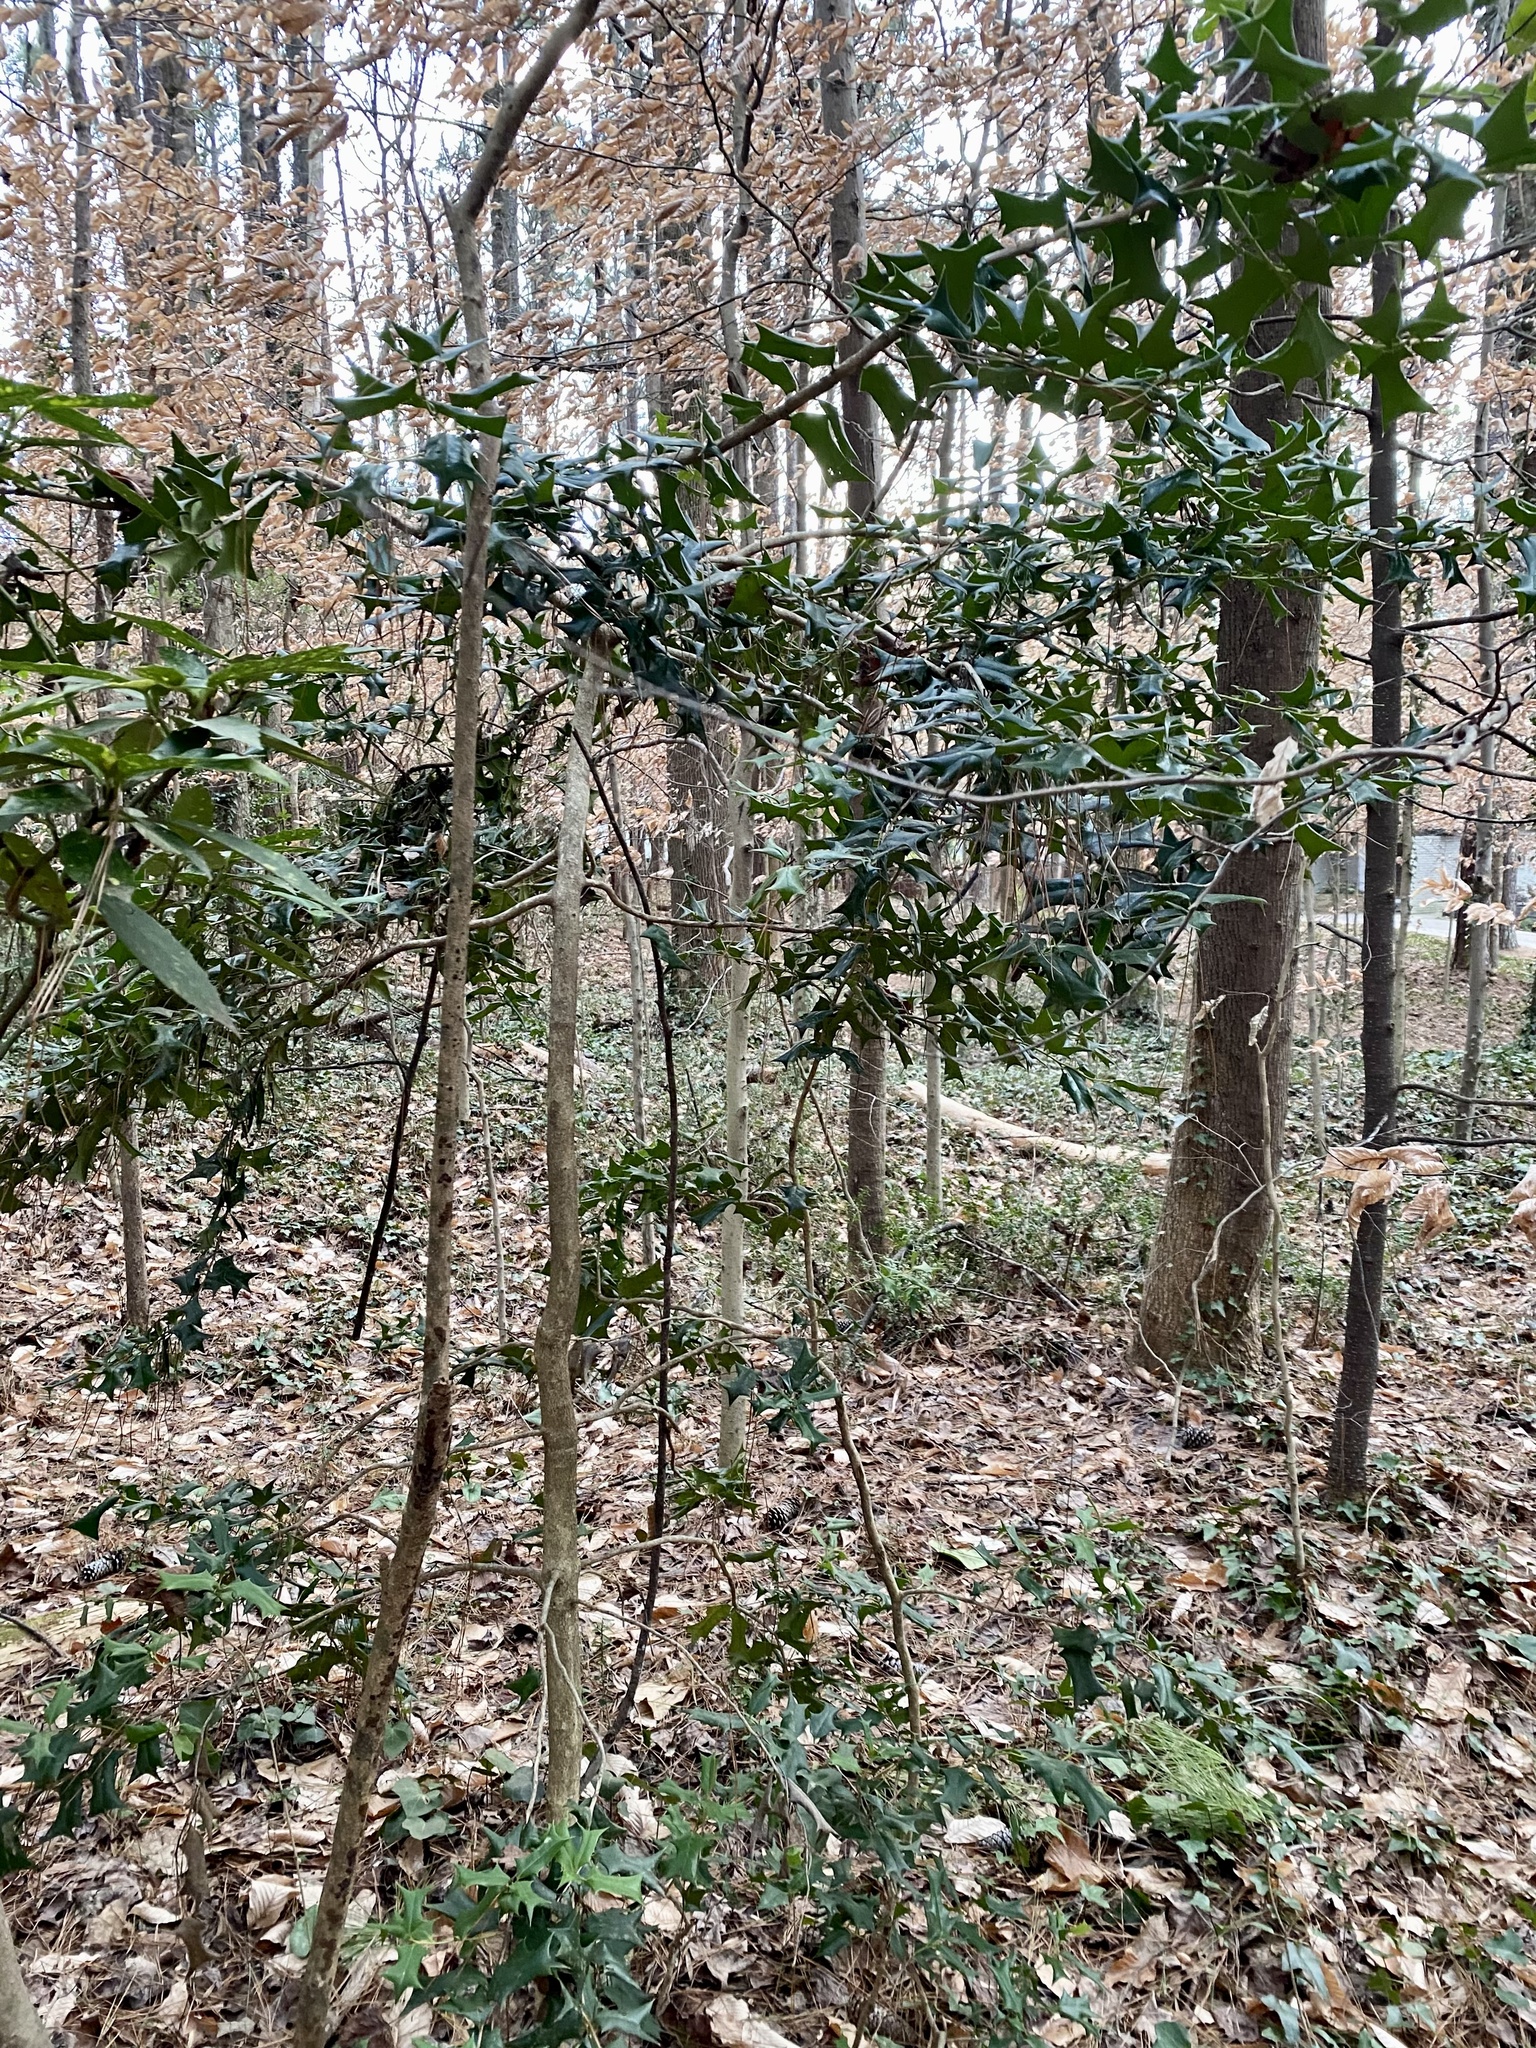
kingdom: Plantae
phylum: Tracheophyta
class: Magnoliopsida
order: Aquifoliales
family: Aquifoliaceae
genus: Ilex
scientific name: Ilex cornuta
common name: Chinese holly
